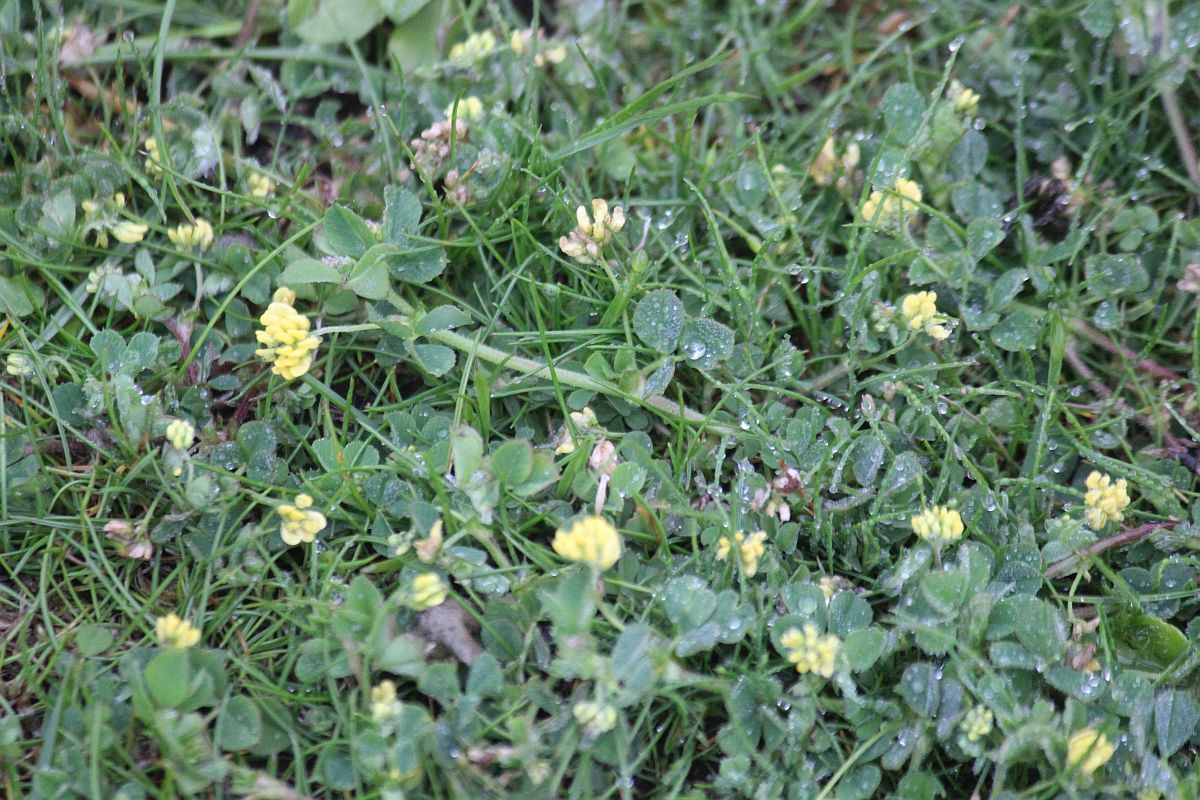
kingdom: Plantae
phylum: Tracheophyta
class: Magnoliopsida
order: Fabales
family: Fabaceae
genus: Medicago
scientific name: Medicago lupulina
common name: Black medick
